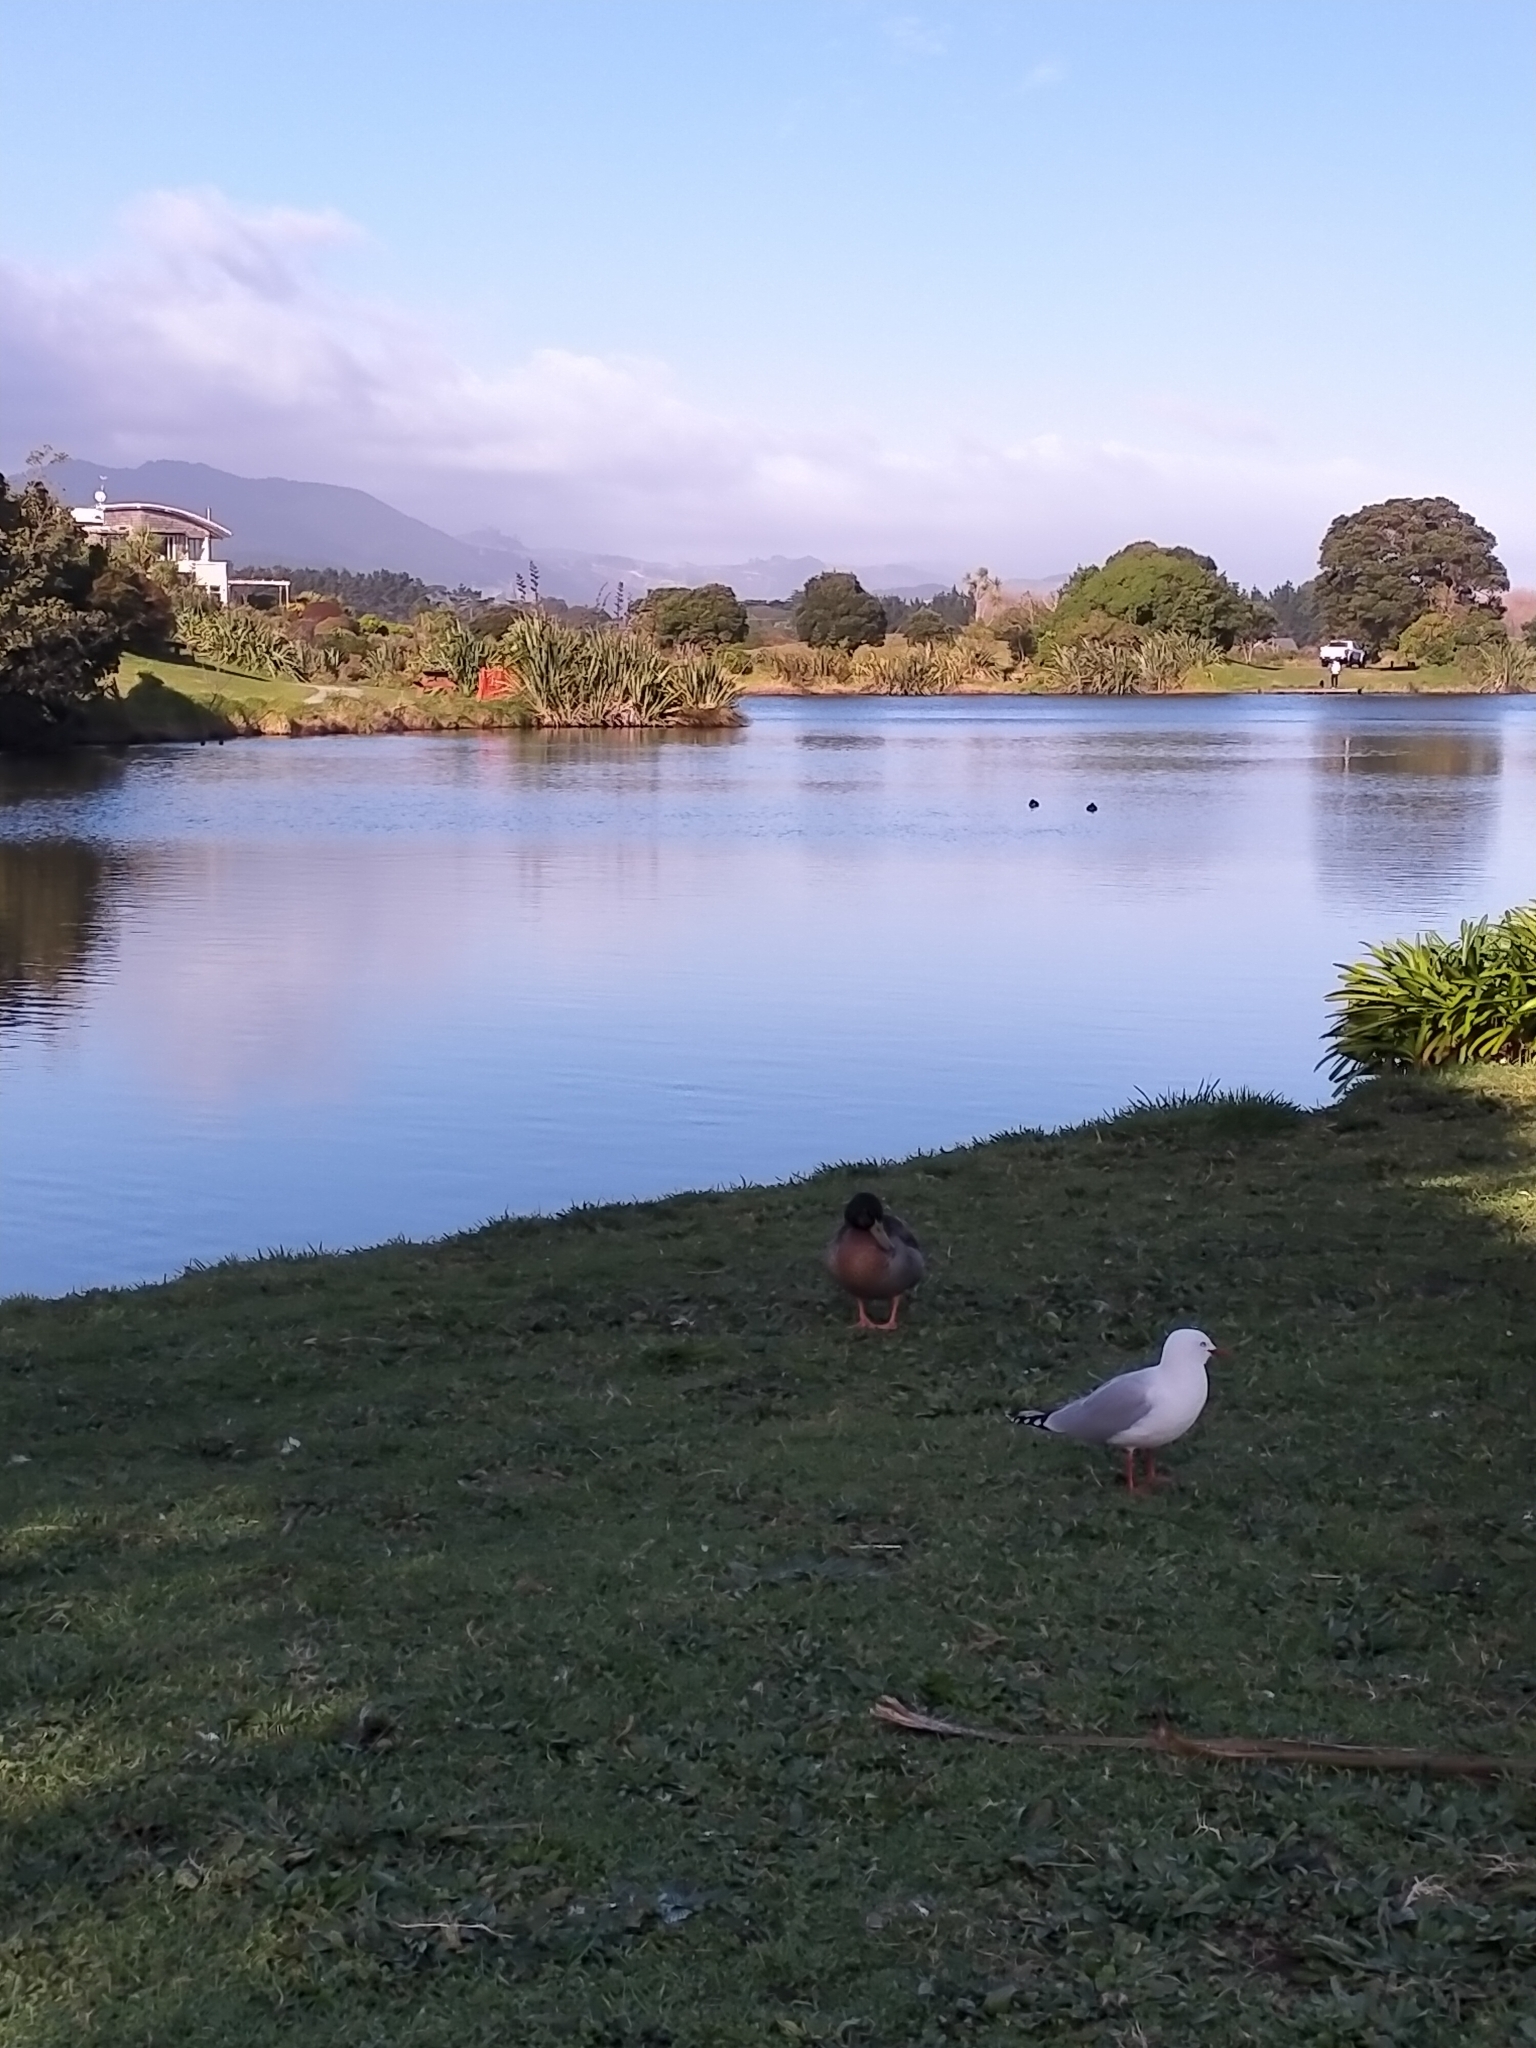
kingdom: Animalia
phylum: Chordata
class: Aves
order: Charadriiformes
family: Laridae
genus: Chroicocephalus
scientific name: Chroicocephalus novaehollandiae
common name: Silver gull
